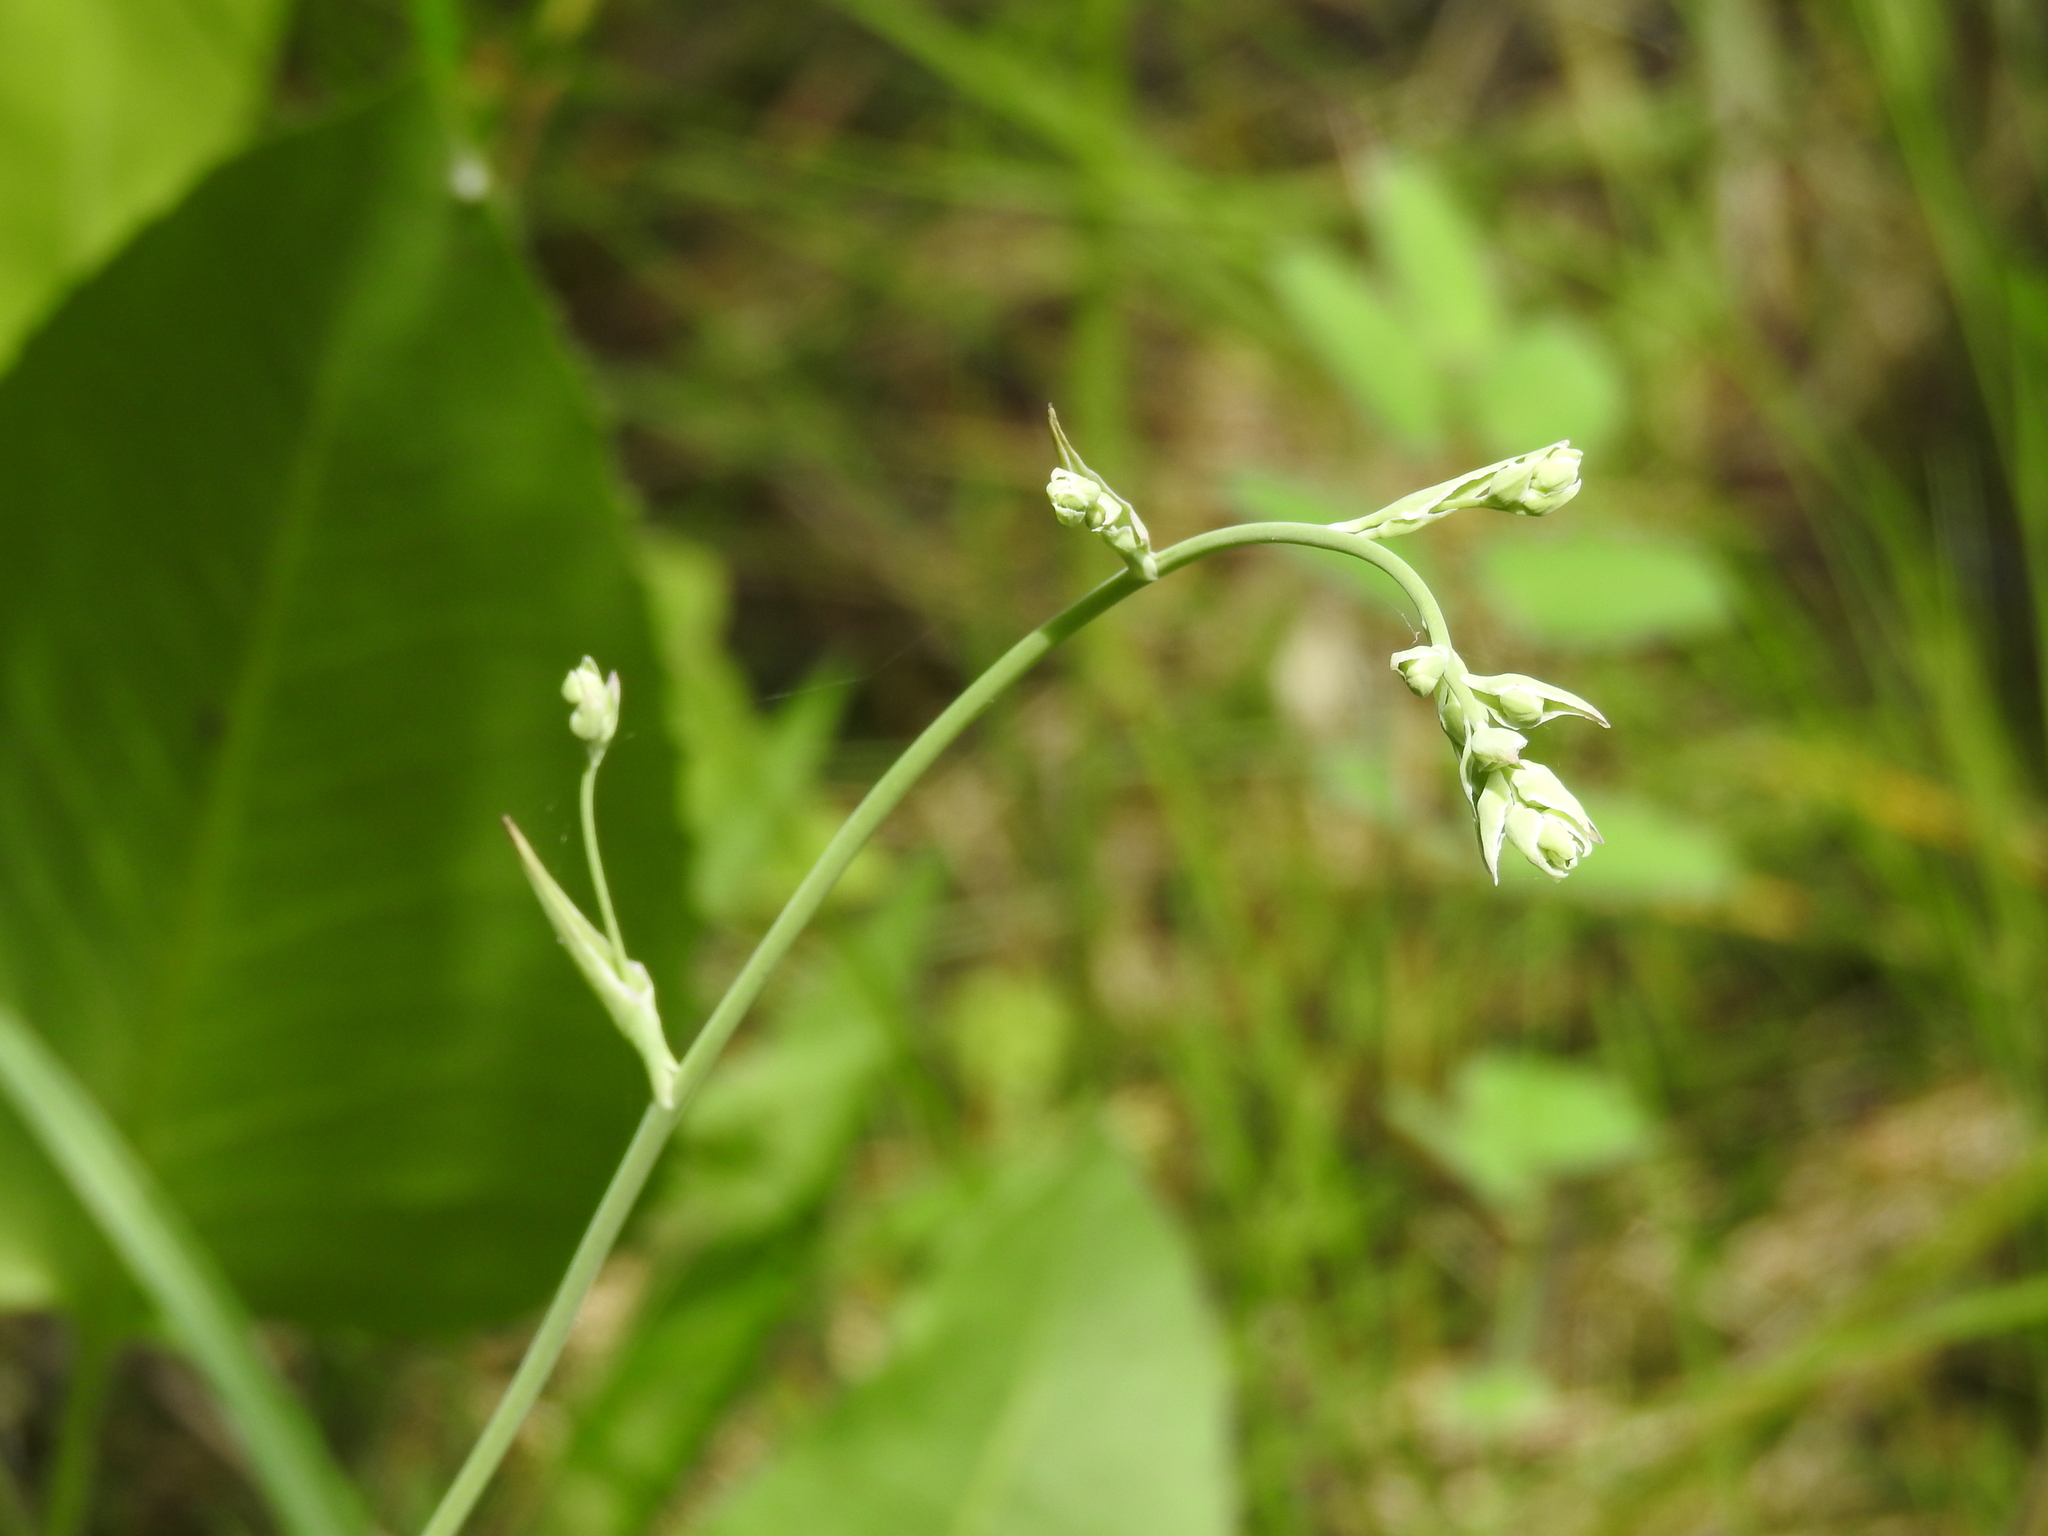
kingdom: Plantae
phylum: Tracheophyta
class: Liliopsida
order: Liliales
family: Melanthiaceae
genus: Anticlea
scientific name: Anticlea elegans
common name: Mountain death camas
